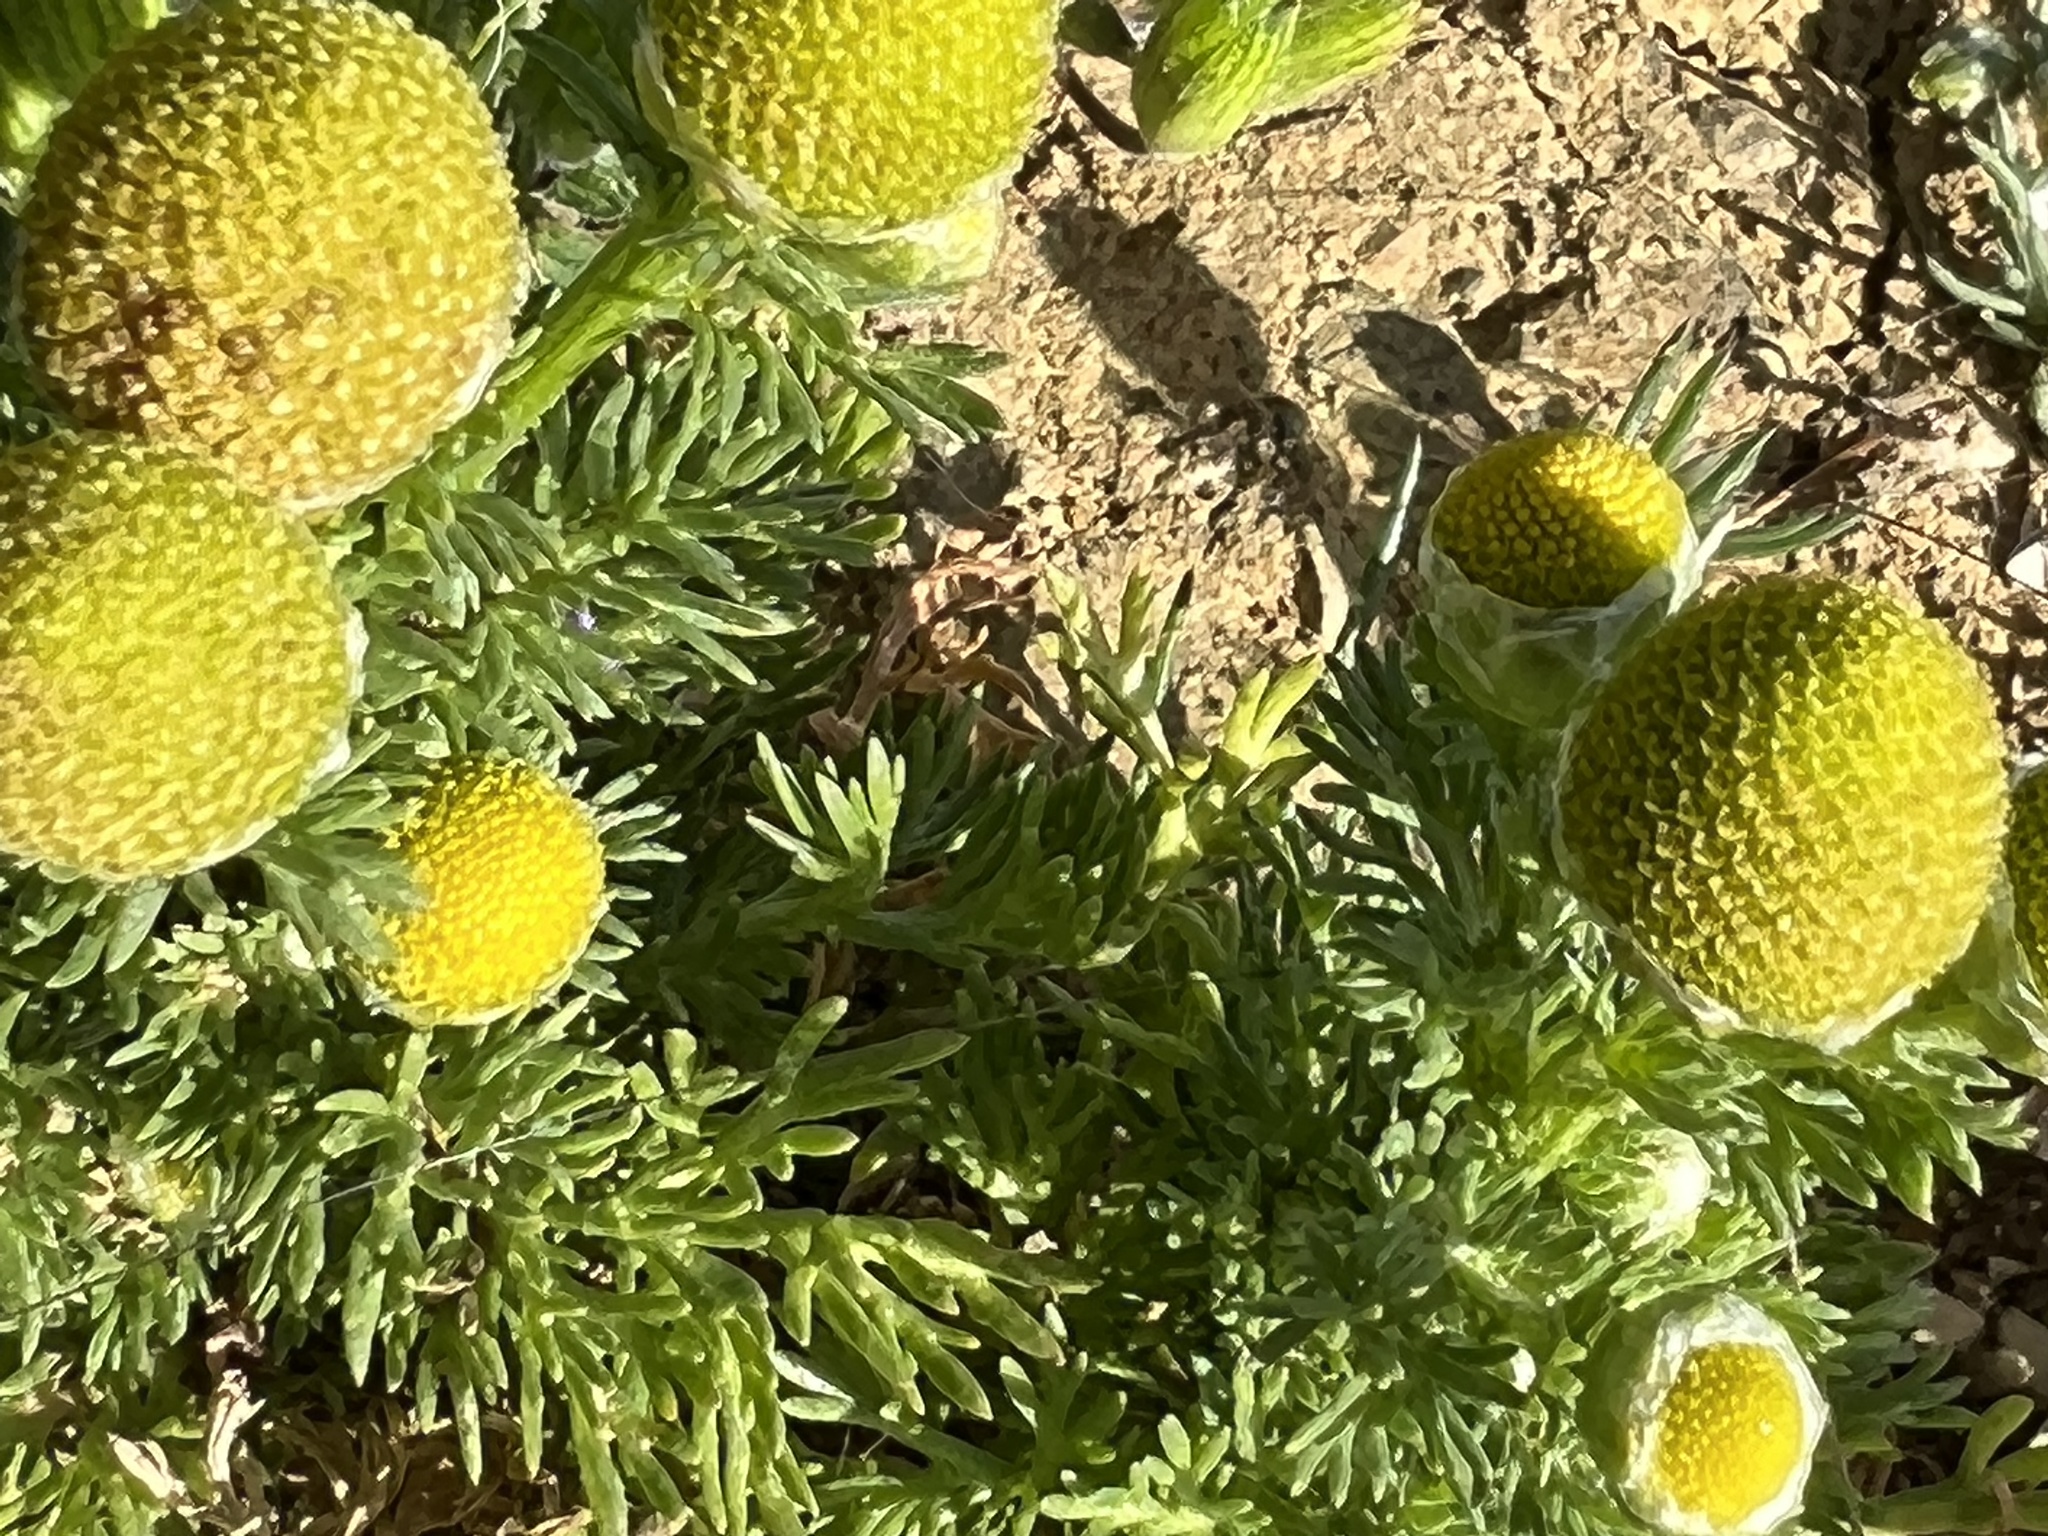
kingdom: Plantae
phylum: Tracheophyta
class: Magnoliopsida
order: Asterales
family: Asteraceae
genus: Matricaria
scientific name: Matricaria discoidea
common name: Disc mayweed
